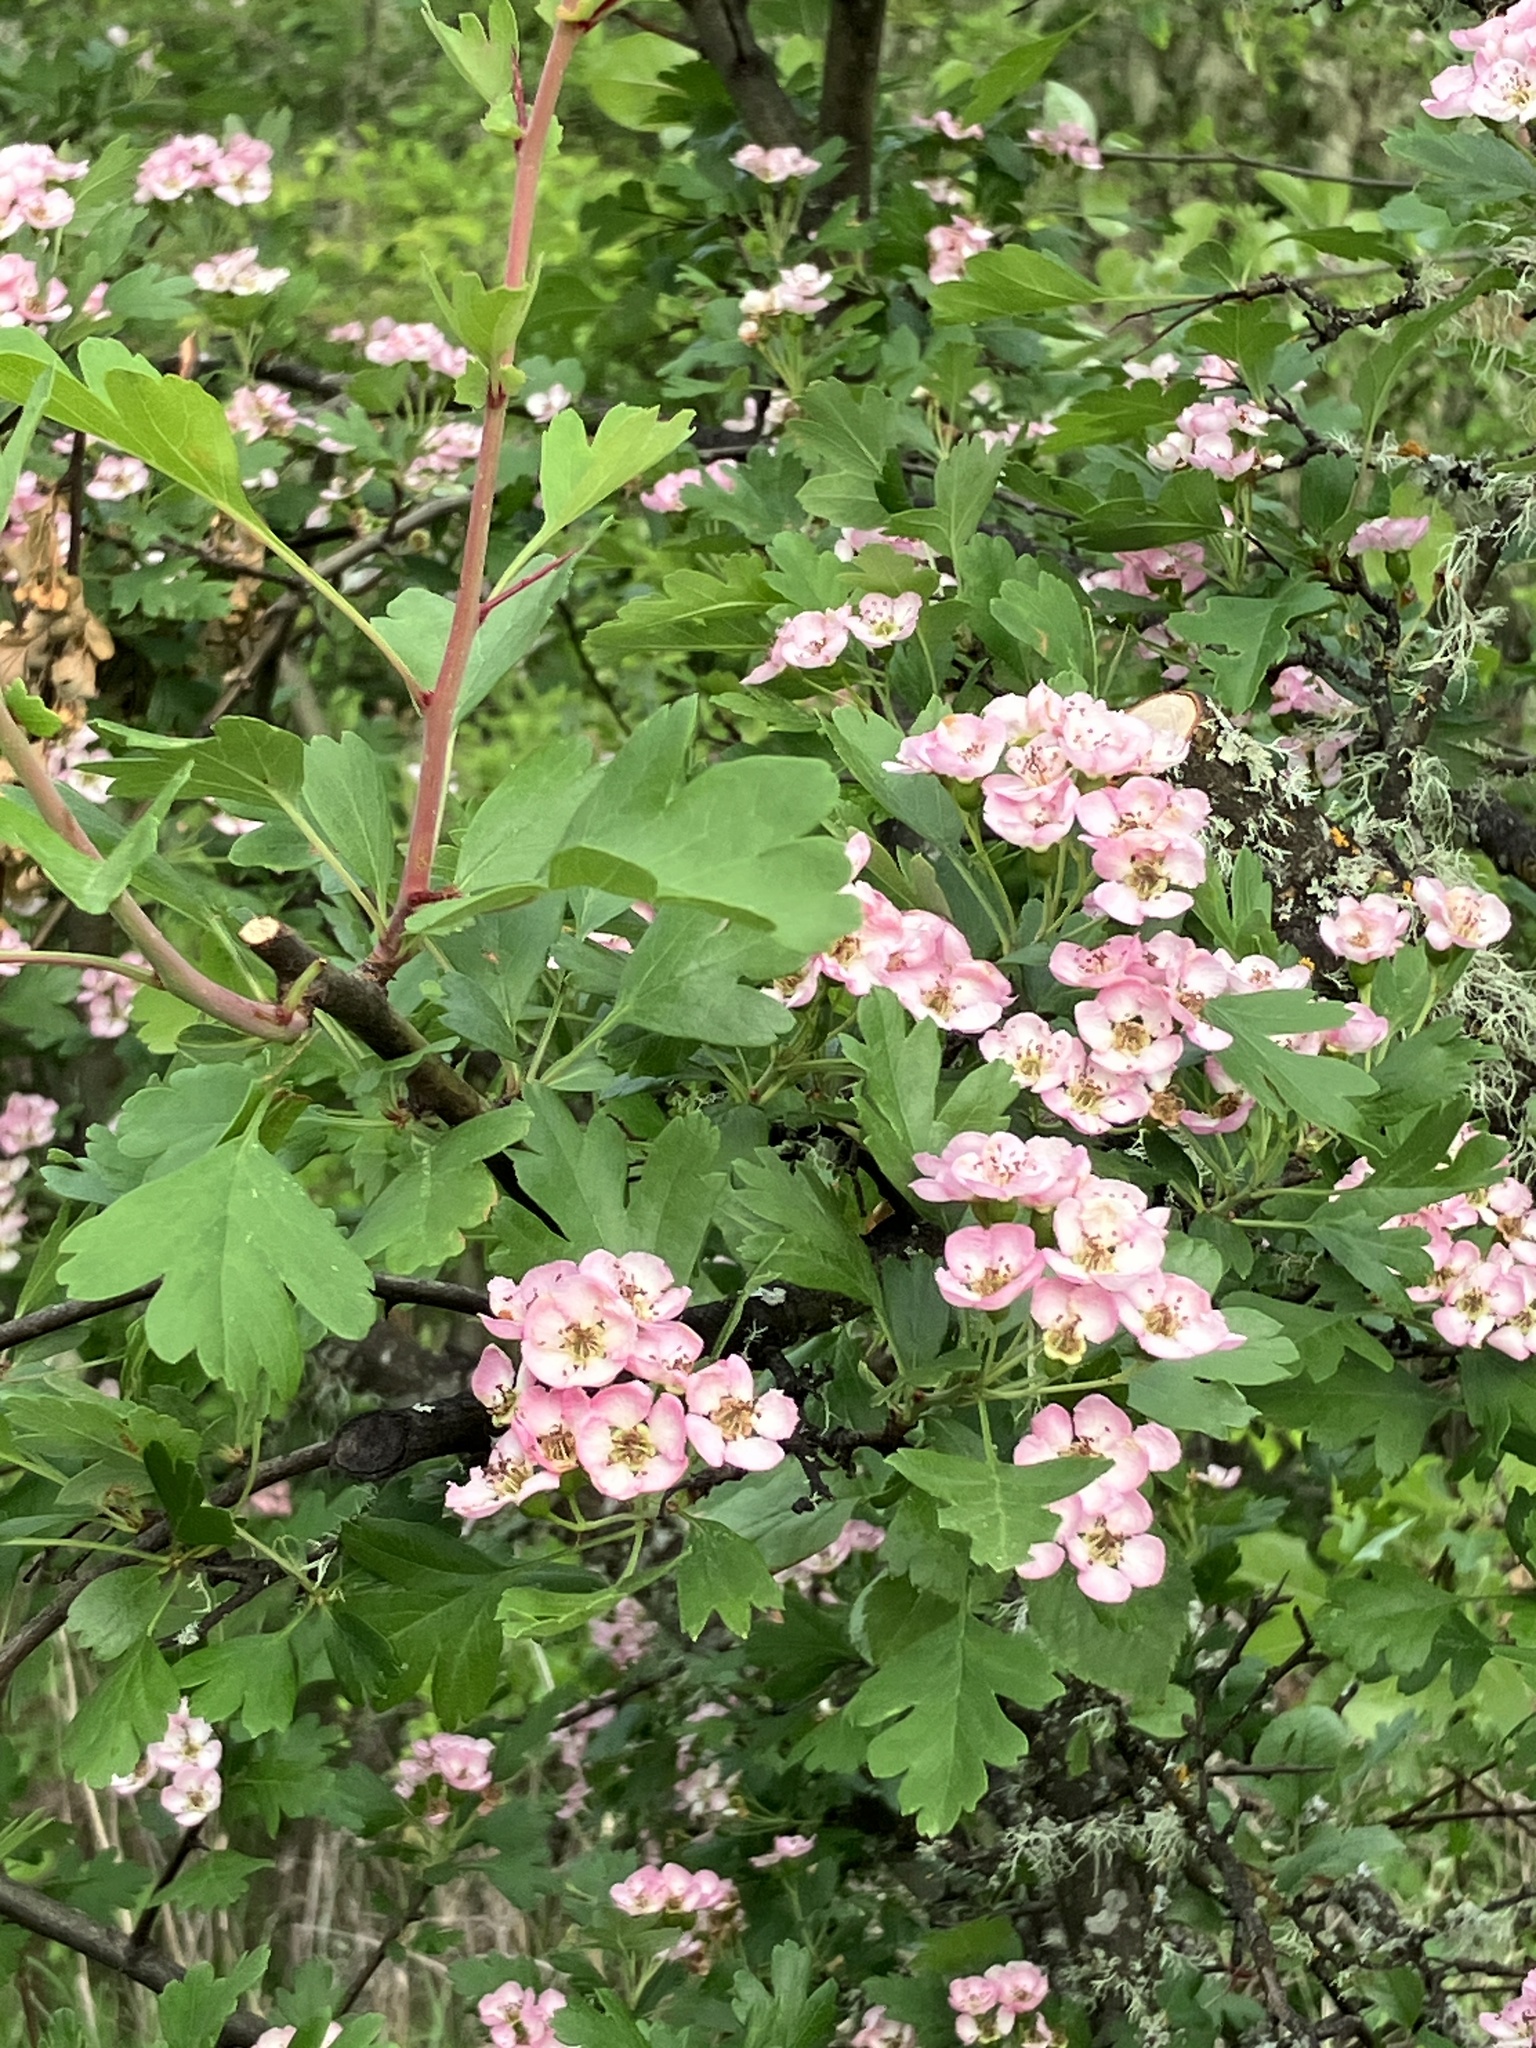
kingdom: Plantae
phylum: Tracheophyta
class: Magnoliopsida
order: Rosales
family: Rosaceae
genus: Crataegus
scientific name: Crataegus monogyna
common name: Hawthorn
